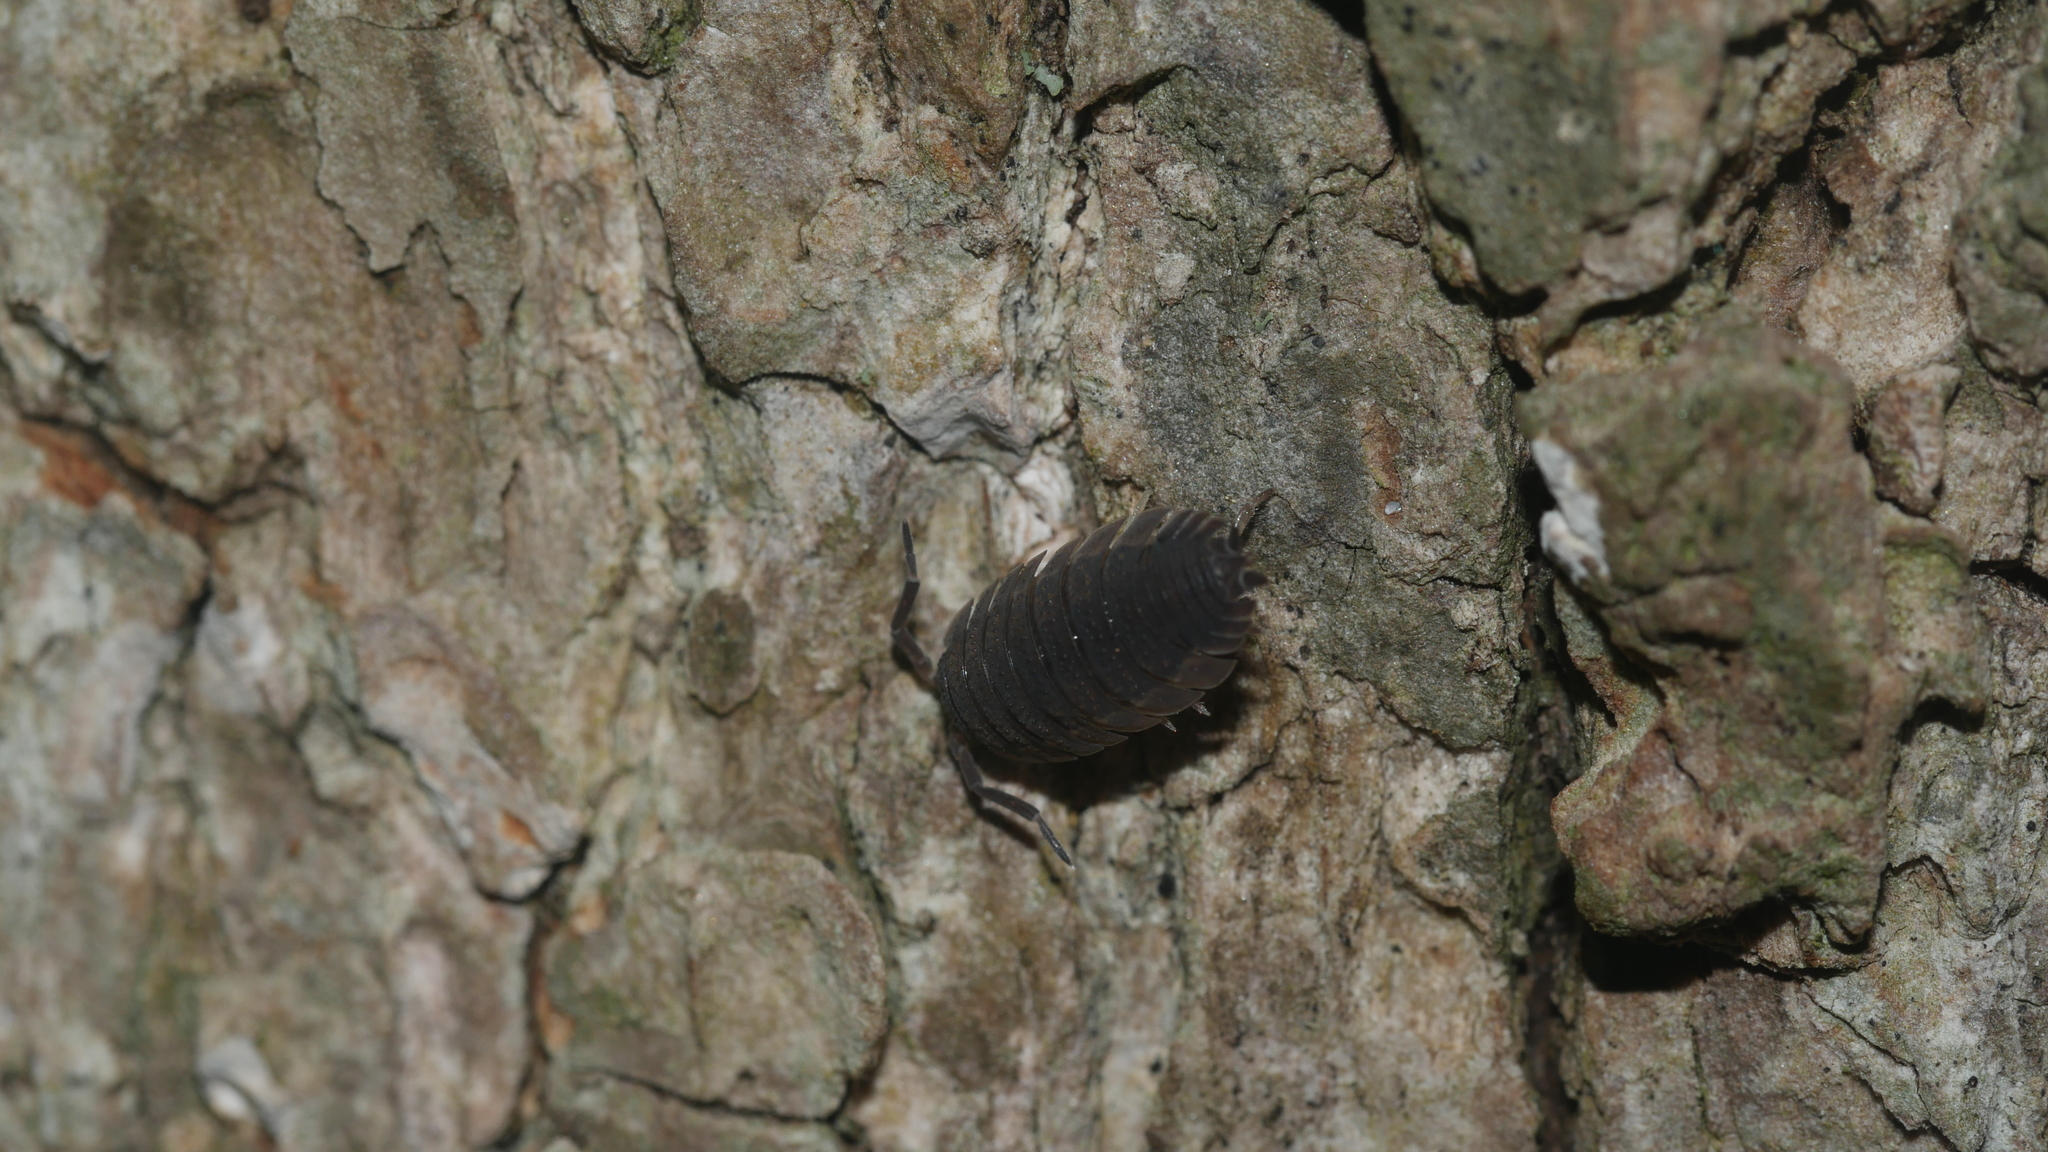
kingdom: Animalia
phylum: Arthropoda
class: Malacostraca
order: Isopoda
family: Porcellionidae
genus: Porcellio
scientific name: Porcellio scaber
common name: Common rough woodlouse
